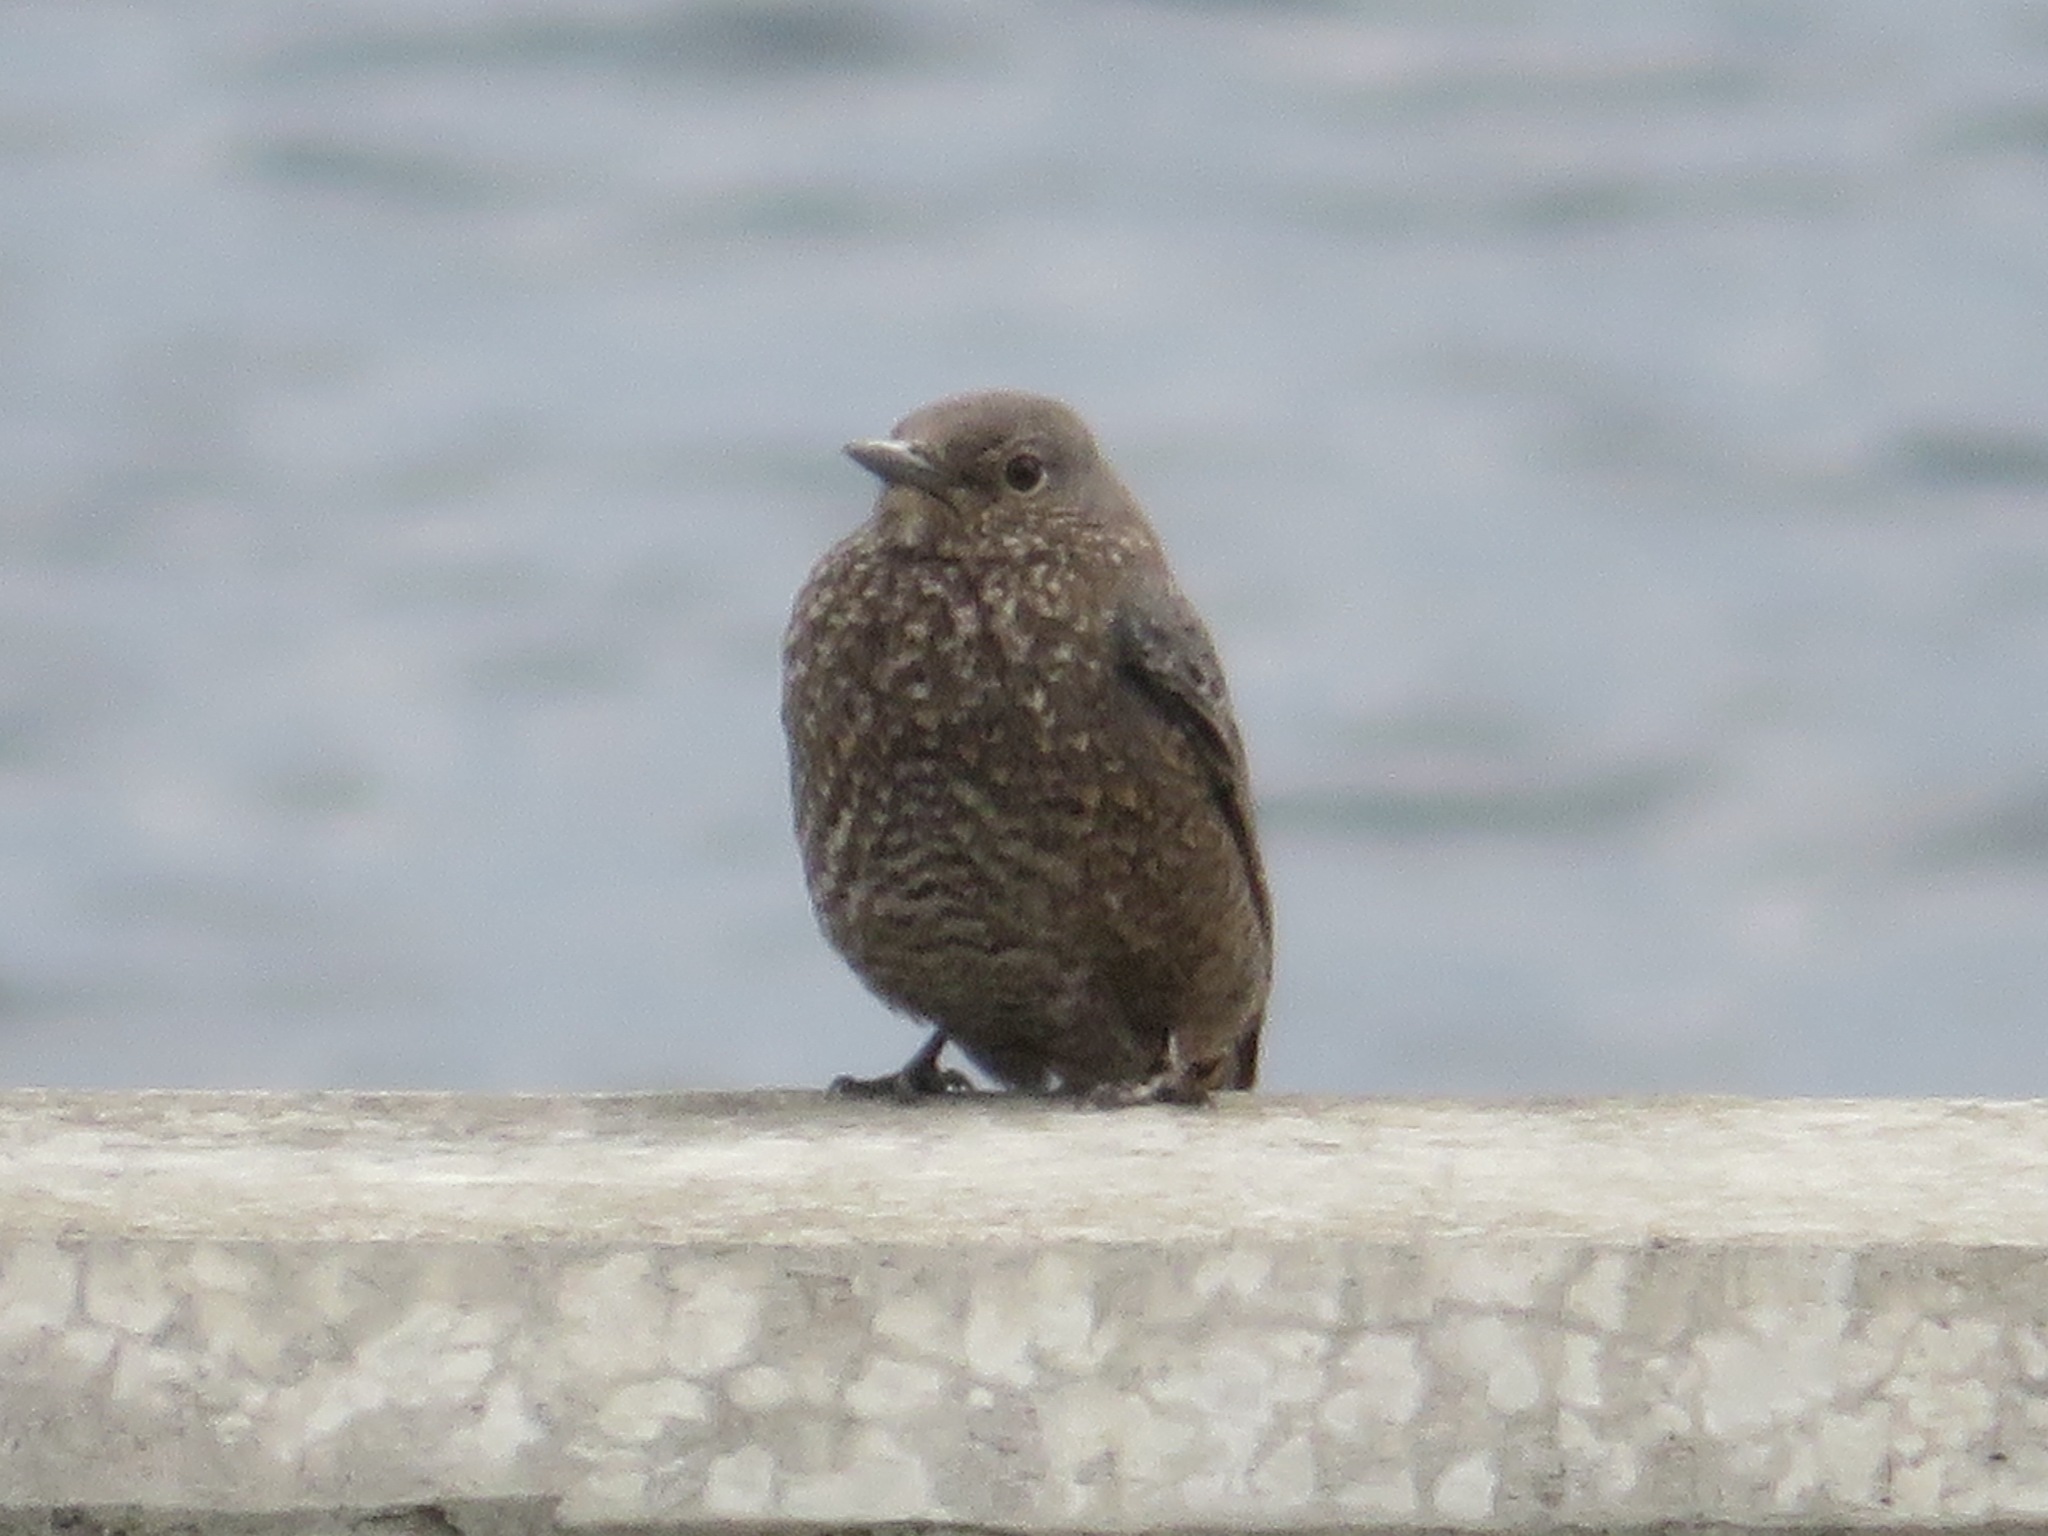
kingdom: Animalia
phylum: Chordata
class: Aves
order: Passeriformes
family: Muscicapidae
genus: Monticola
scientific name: Monticola solitarius
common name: Blue rock thrush
